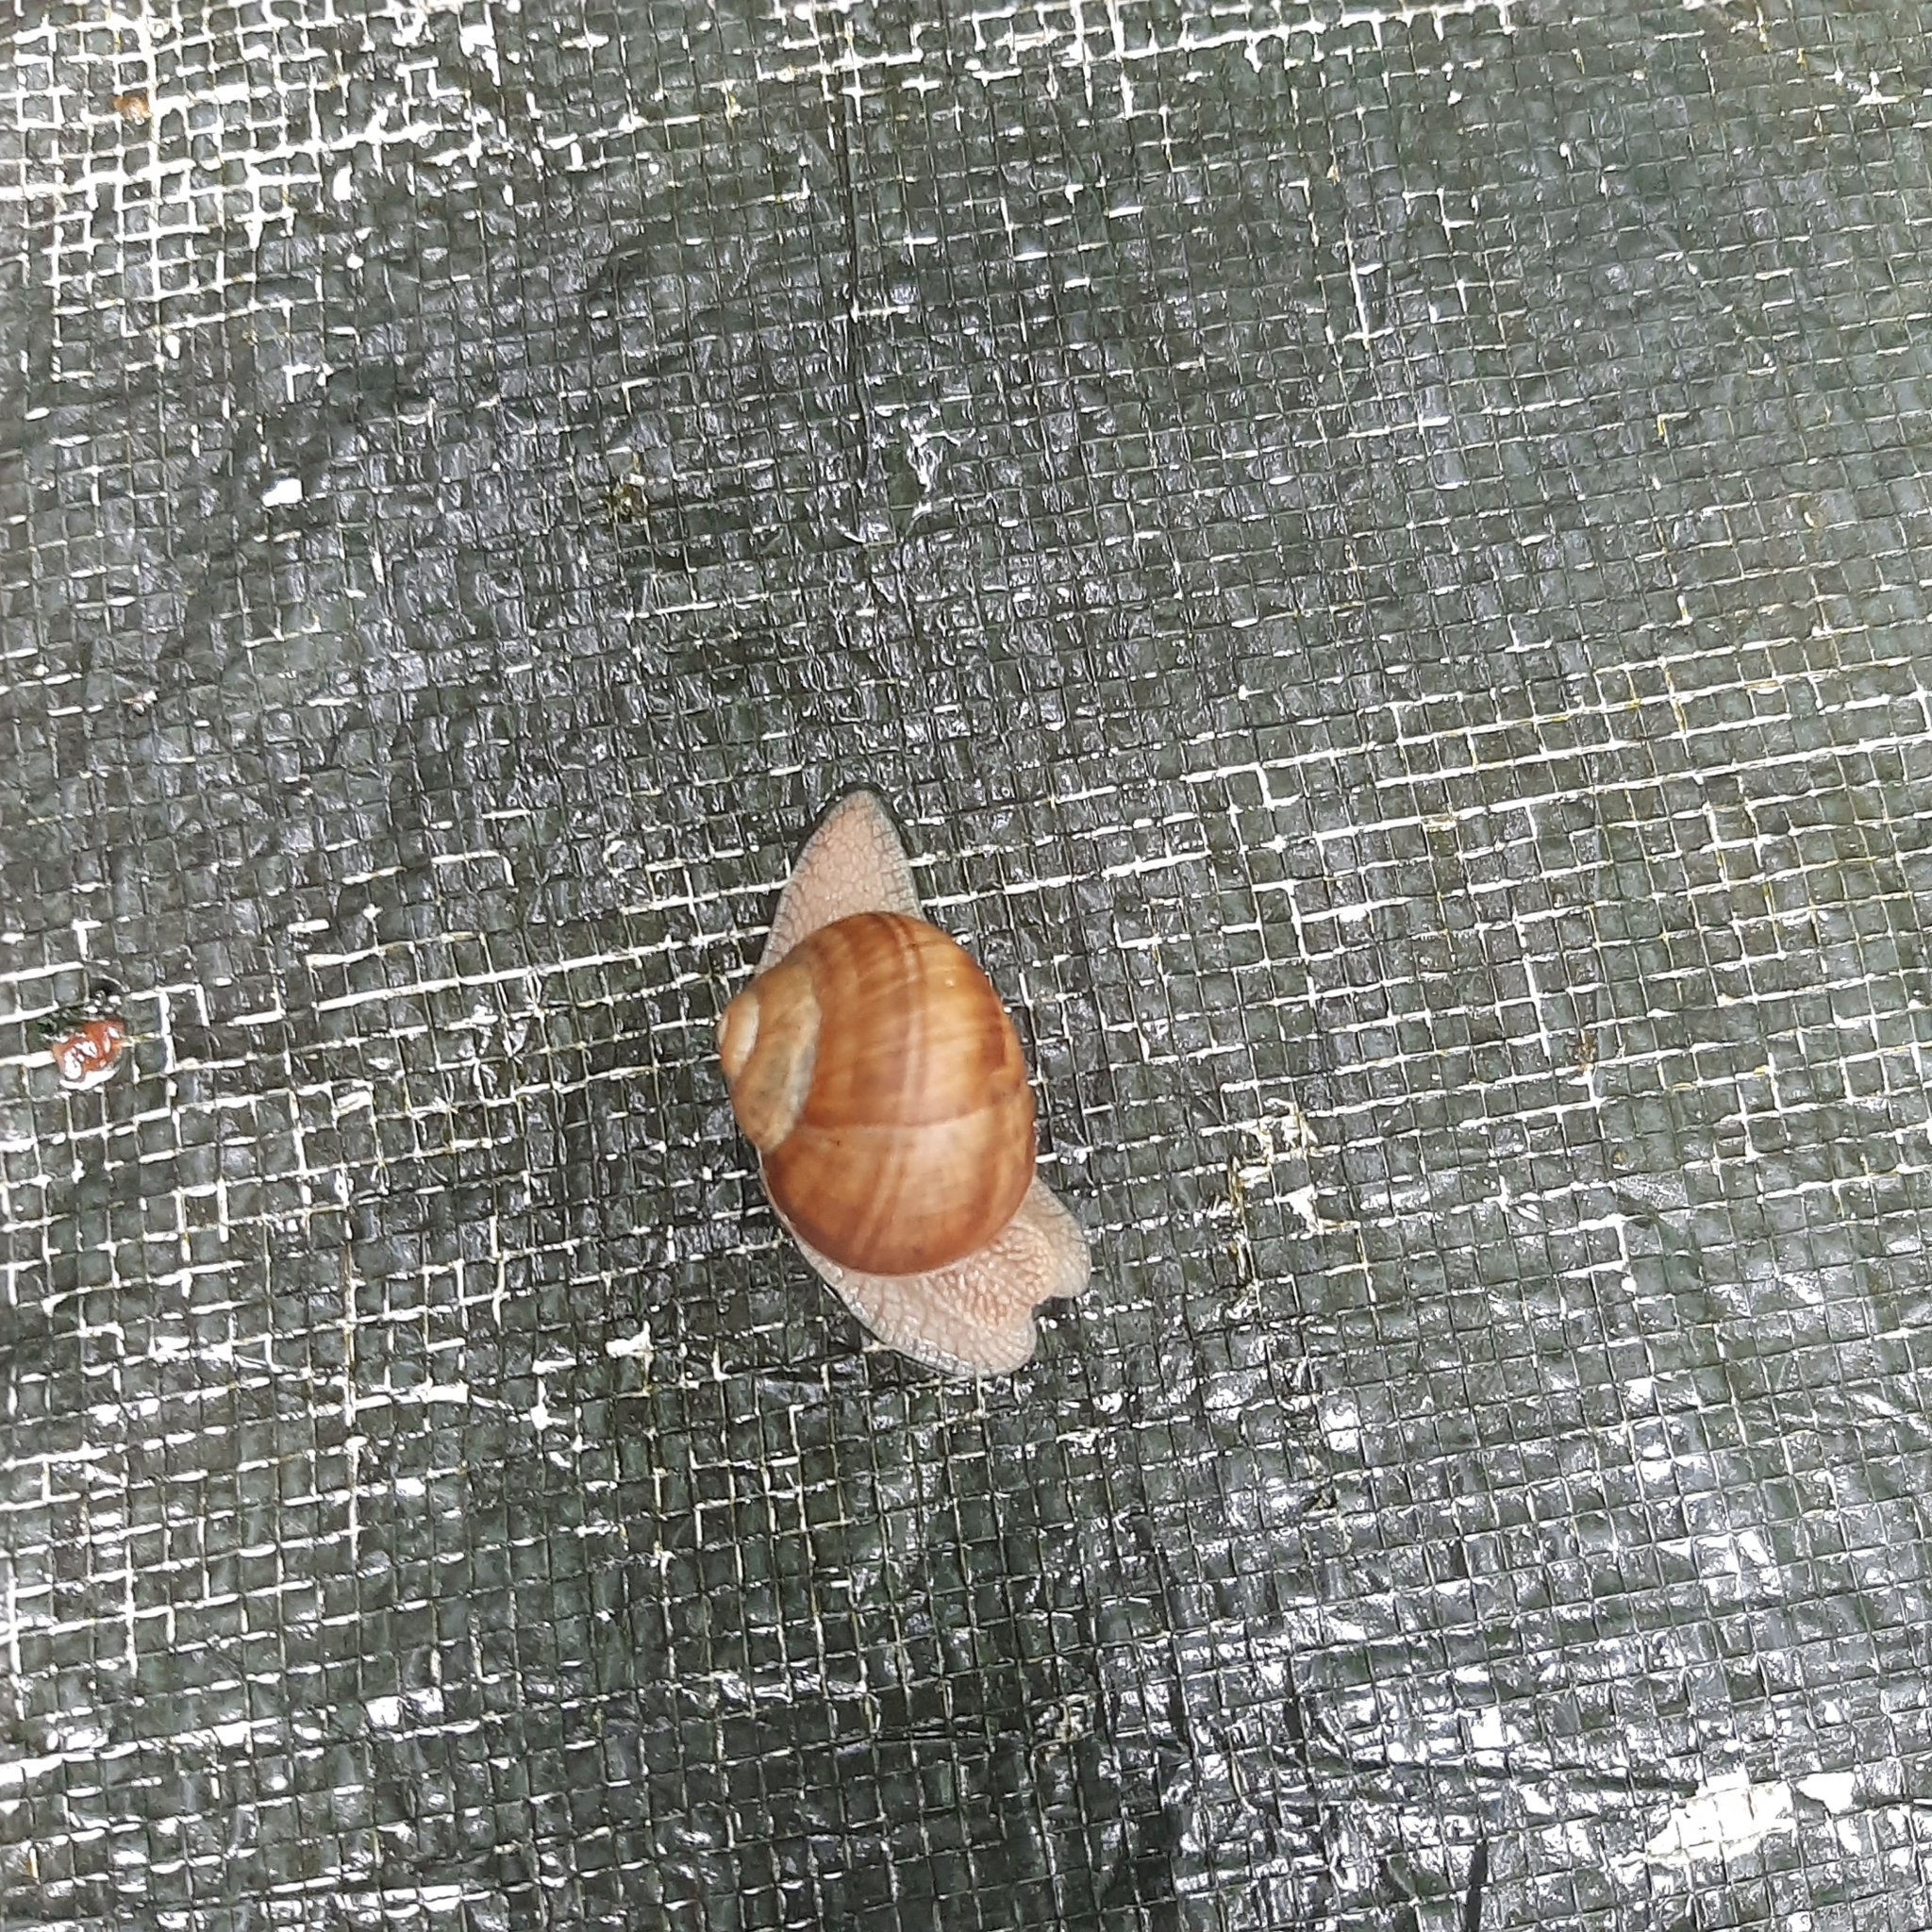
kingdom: Animalia
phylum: Mollusca
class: Gastropoda
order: Stylommatophora
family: Helicidae
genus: Helix
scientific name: Helix pomatia
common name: Roman snail
